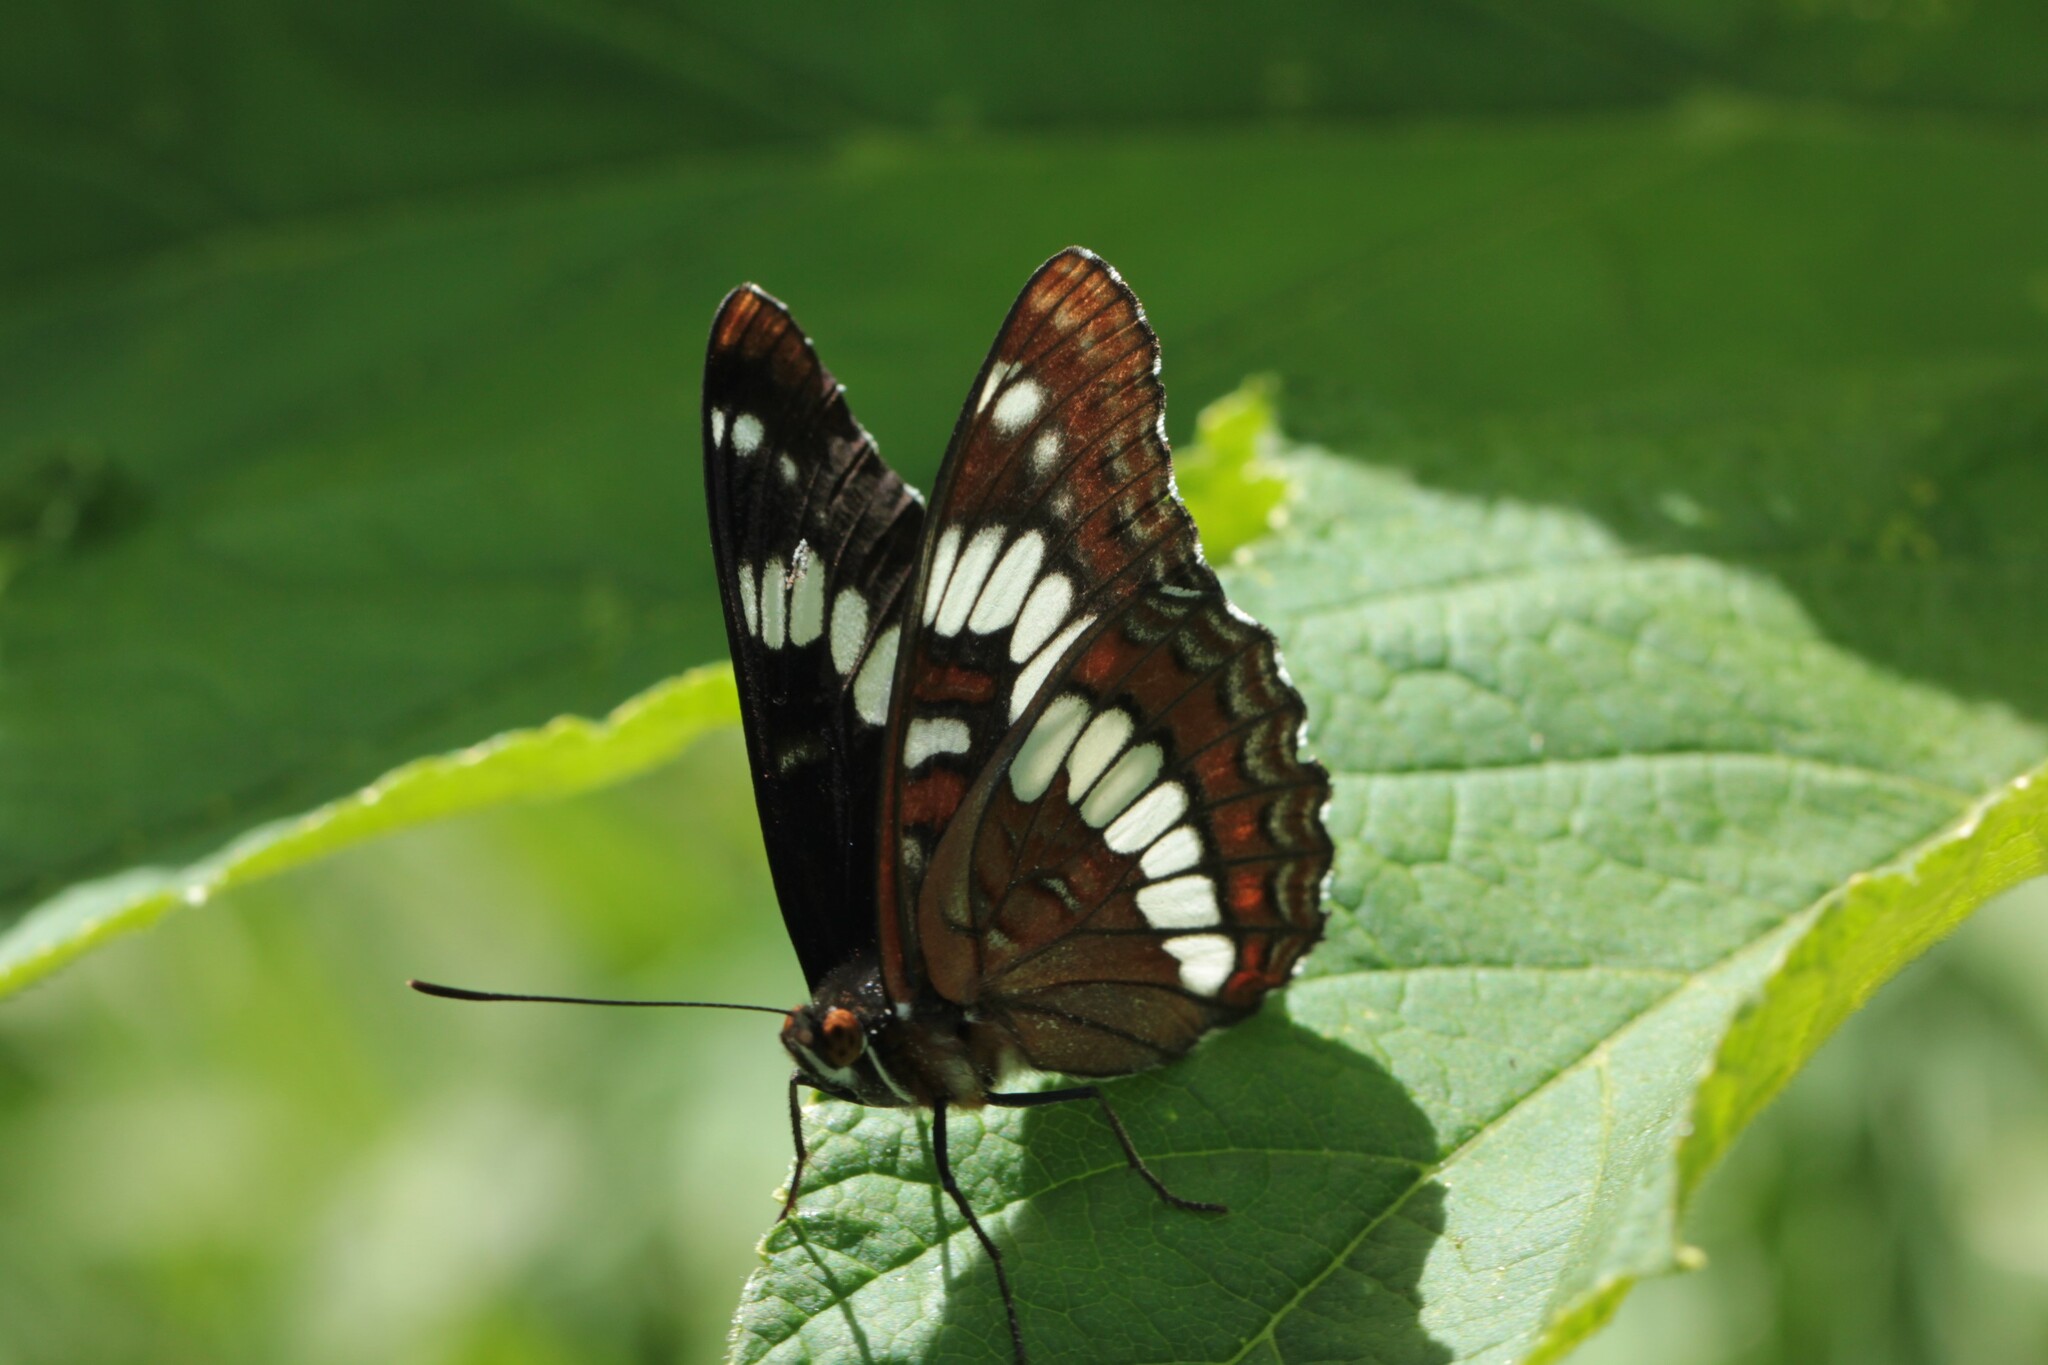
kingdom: Animalia
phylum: Arthropoda
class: Insecta
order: Lepidoptera
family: Nymphalidae
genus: Limenitis
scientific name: Limenitis arthemis
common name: Red-spotted admiral
